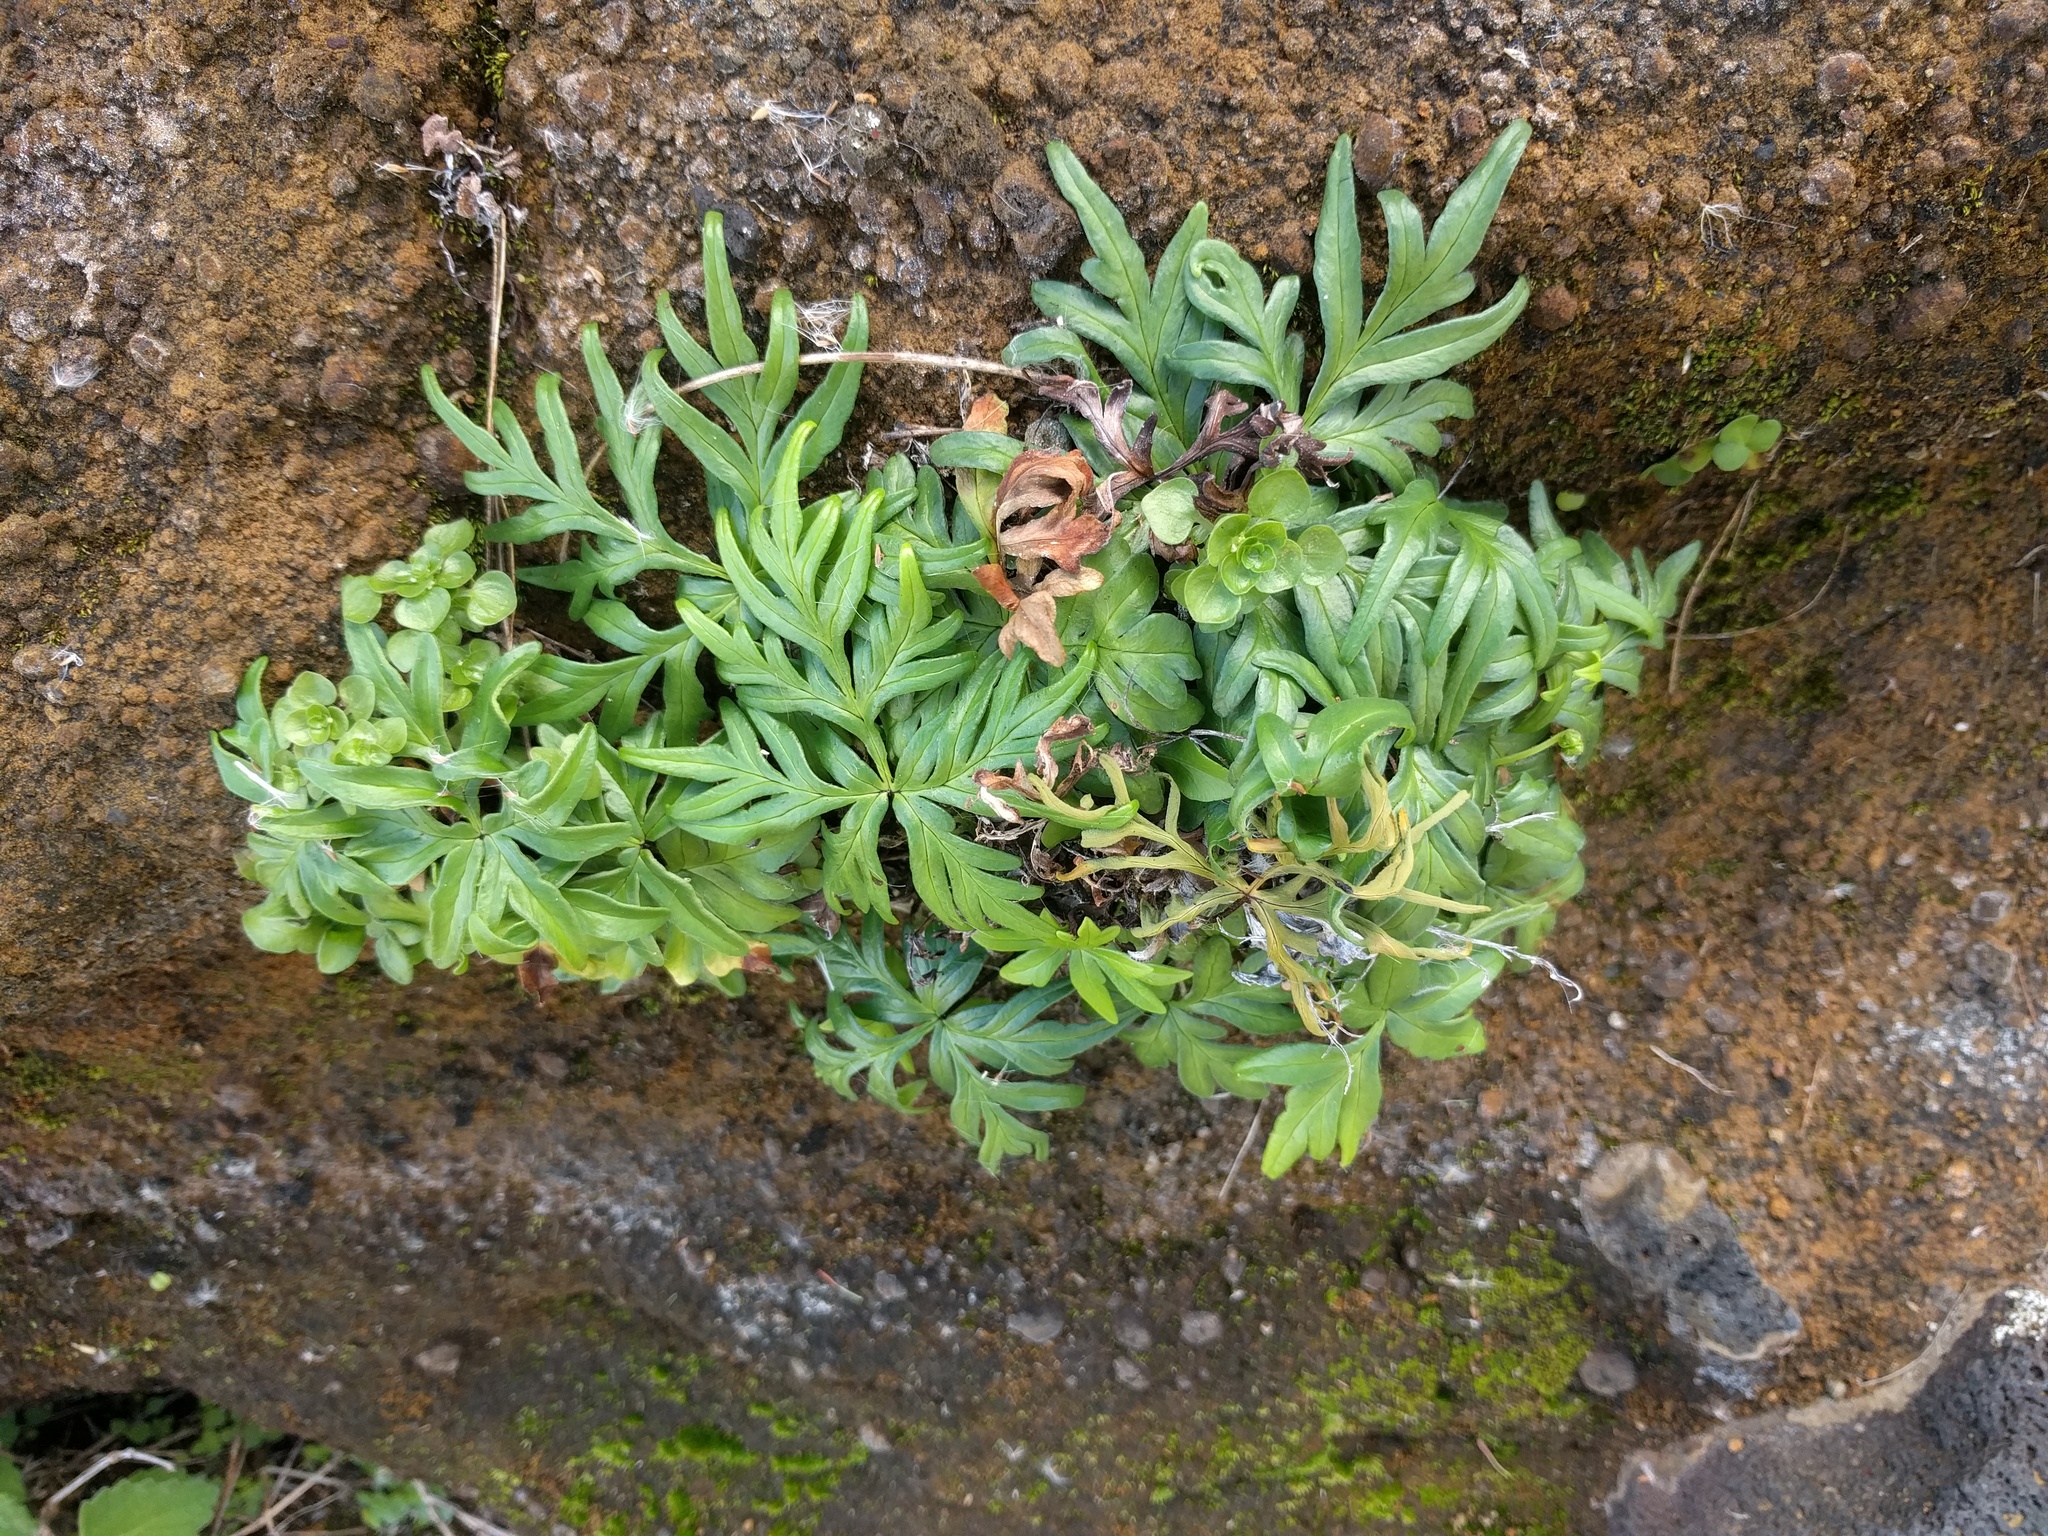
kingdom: Plantae
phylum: Tracheophyta
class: Polypodiopsida
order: Polypodiales
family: Pteridaceae
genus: Doryopteris
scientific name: Doryopteris decipiens
